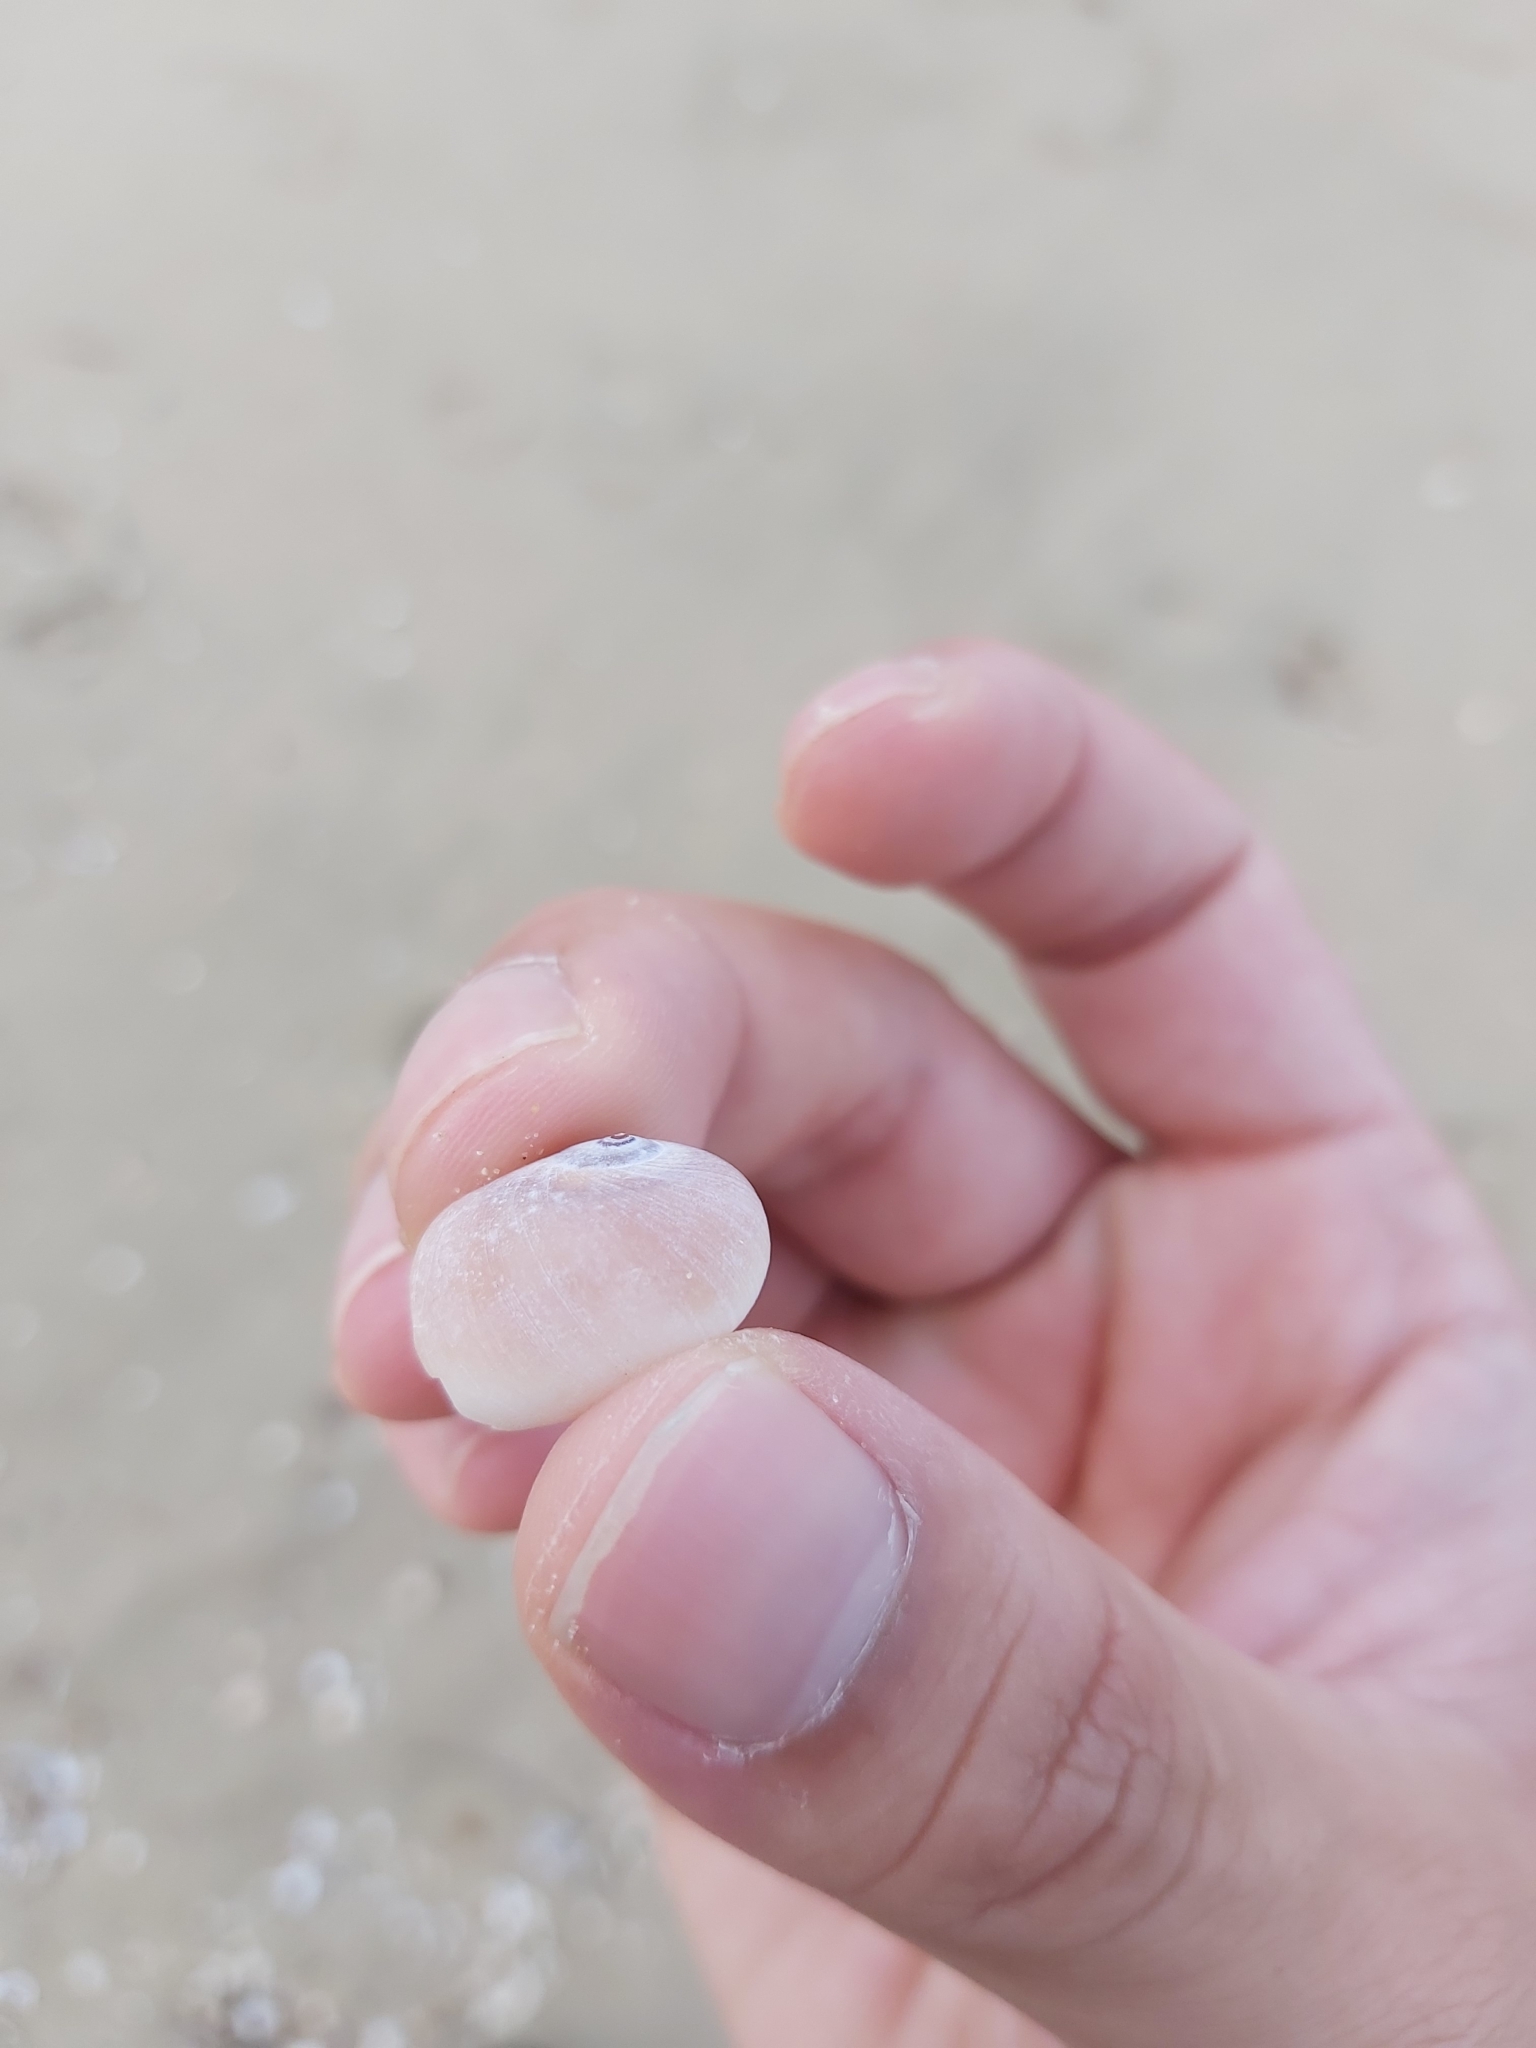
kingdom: Animalia
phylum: Mollusca
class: Gastropoda
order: Littorinimorpha
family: Naticidae
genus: Neverita
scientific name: Neverita didyma
